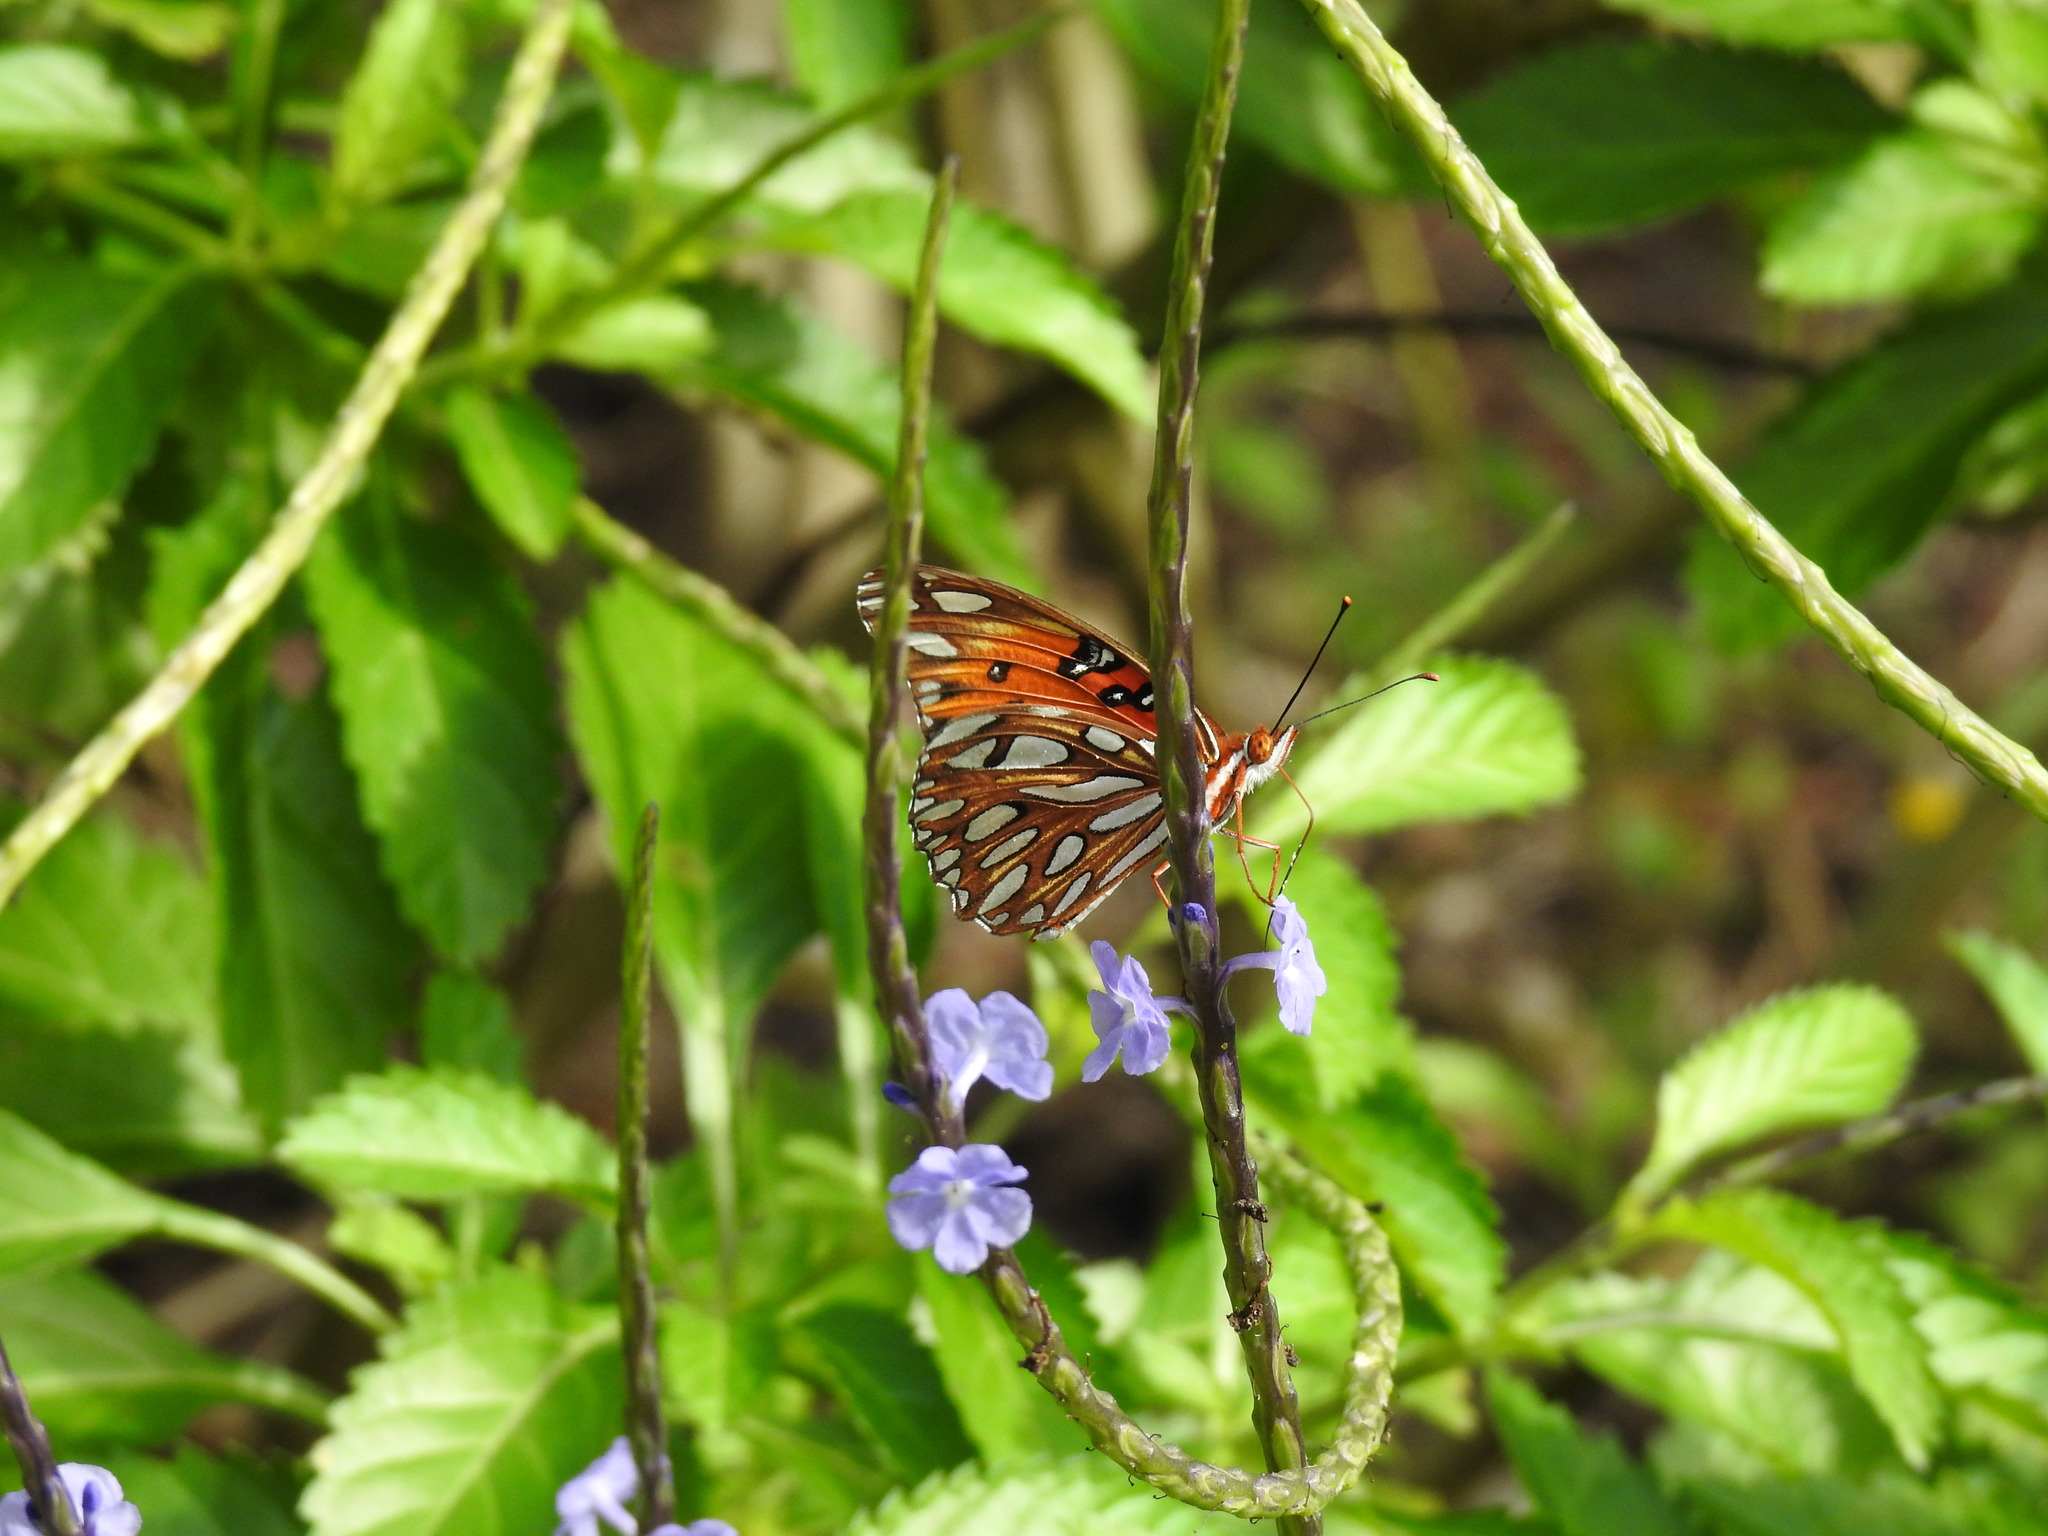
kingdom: Animalia
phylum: Arthropoda
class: Insecta
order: Lepidoptera
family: Nymphalidae
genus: Dione
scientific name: Dione vanillae
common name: Gulf fritillary
